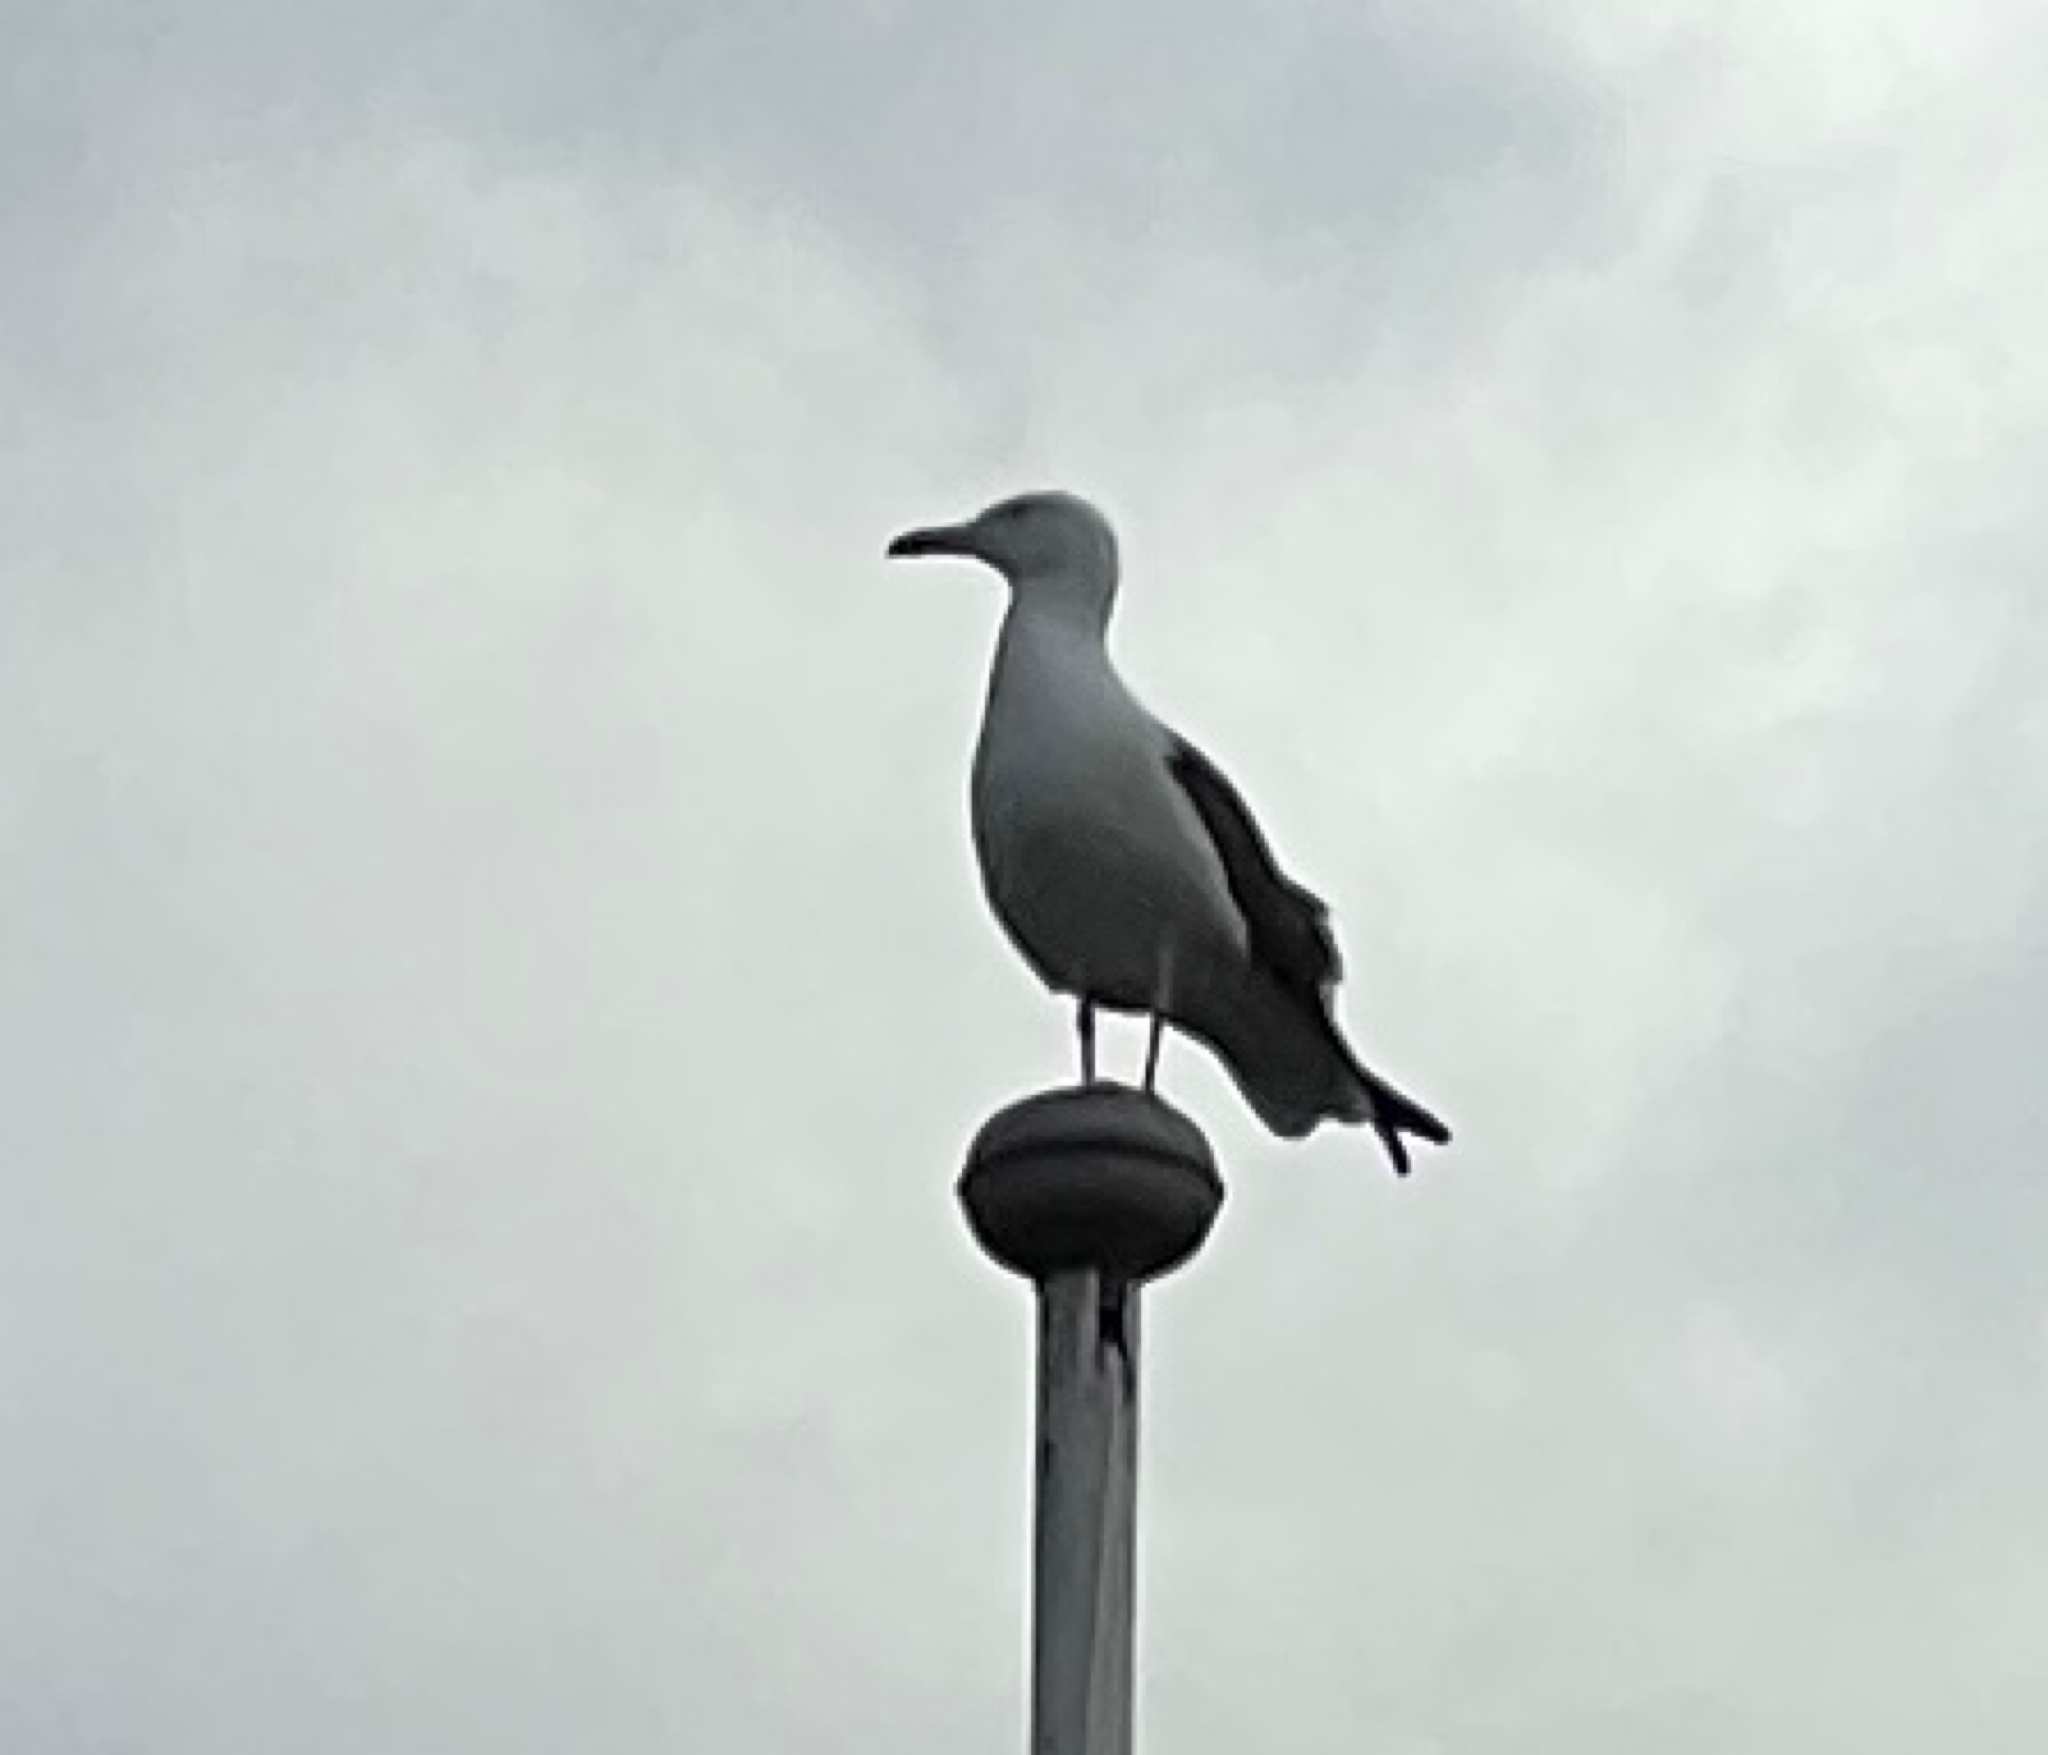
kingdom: Animalia
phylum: Chordata
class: Aves
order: Charadriiformes
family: Laridae
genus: Larus
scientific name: Larus fuscus
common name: Lesser black-backed gull
